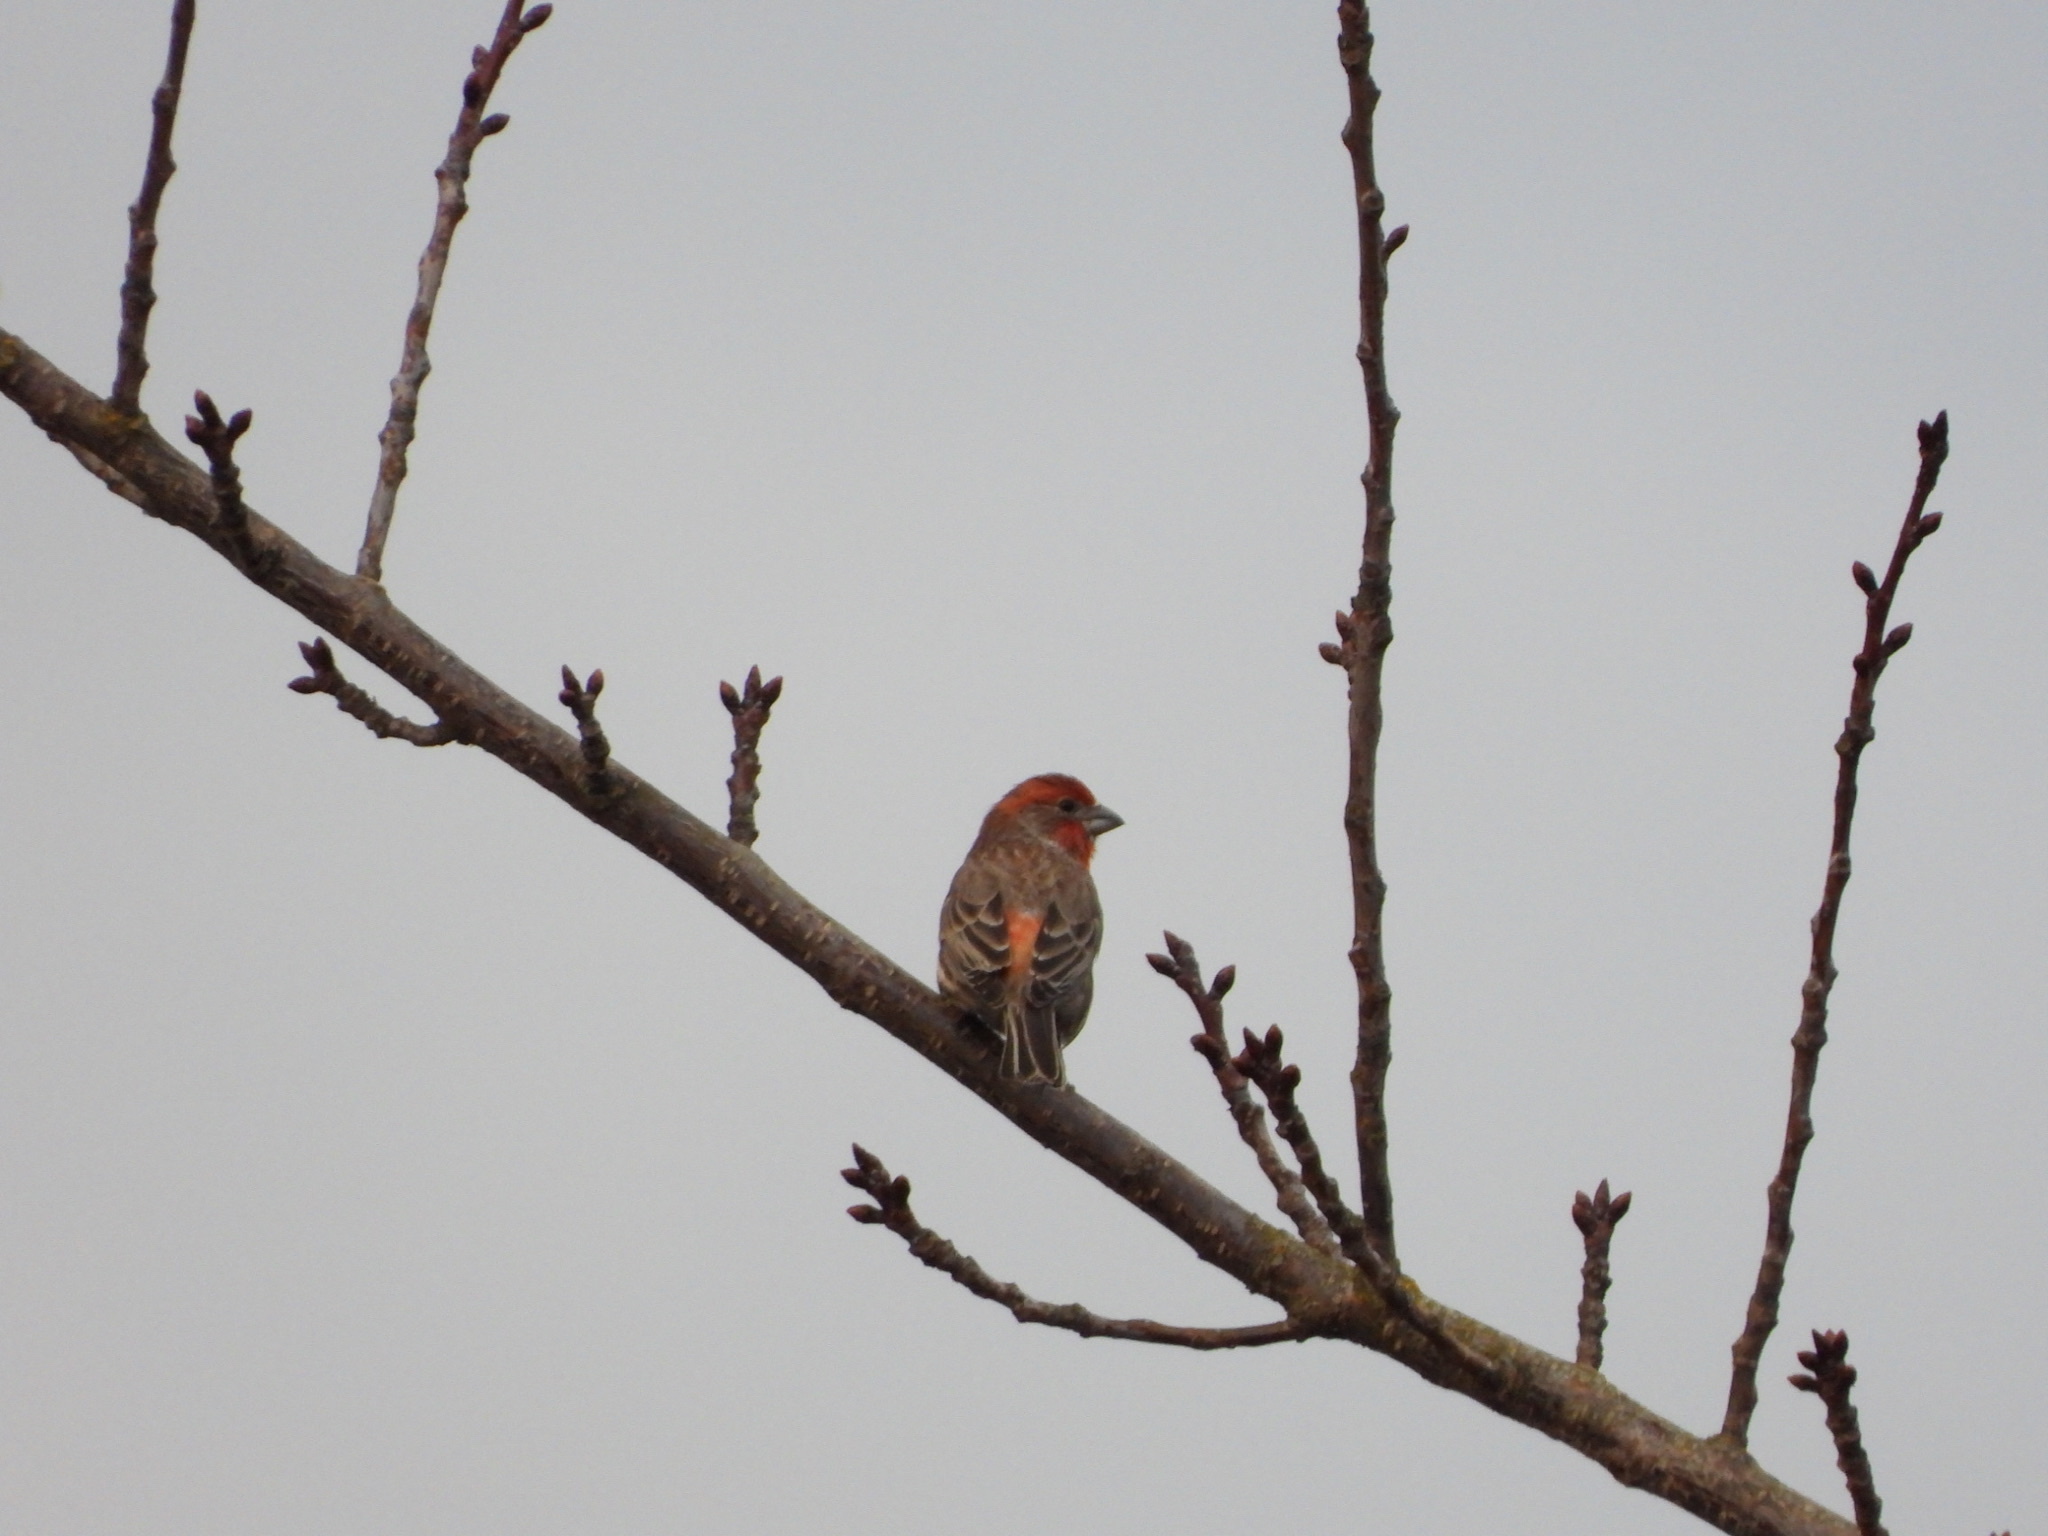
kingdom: Animalia
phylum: Chordata
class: Aves
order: Passeriformes
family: Fringillidae
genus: Haemorhous
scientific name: Haemorhous mexicanus
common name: House finch
